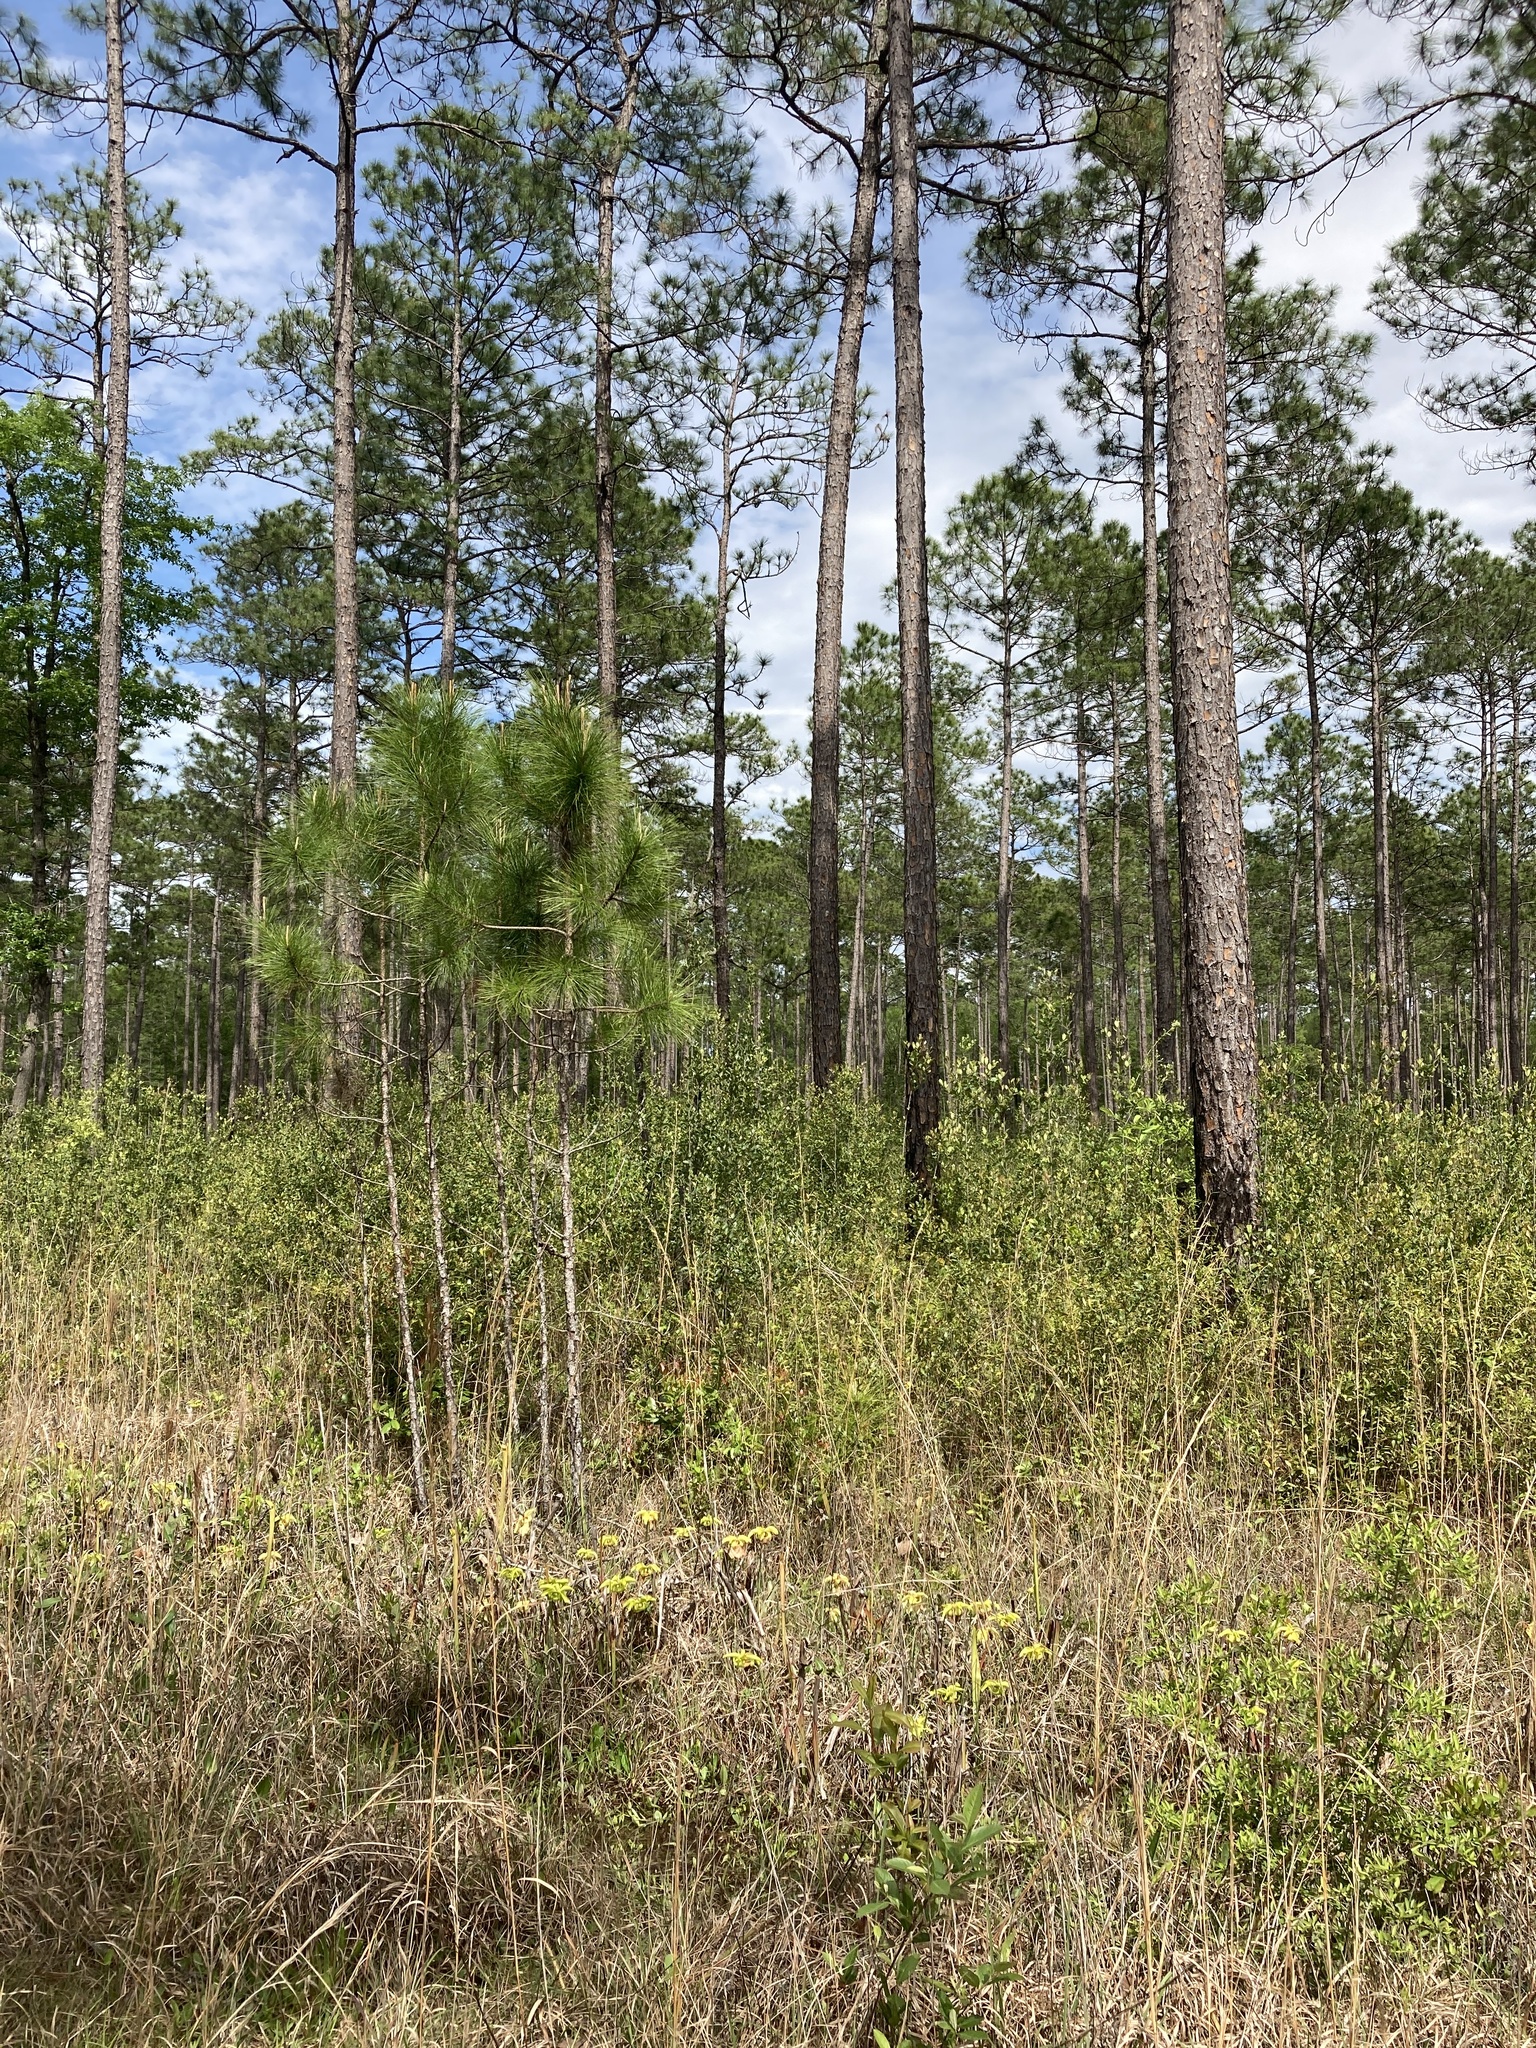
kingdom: Plantae
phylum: Tracheophyta
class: Pinopsida
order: Pinales
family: Pinaceae
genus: Pinus
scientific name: Pinus palustris
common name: Longleaf pine
